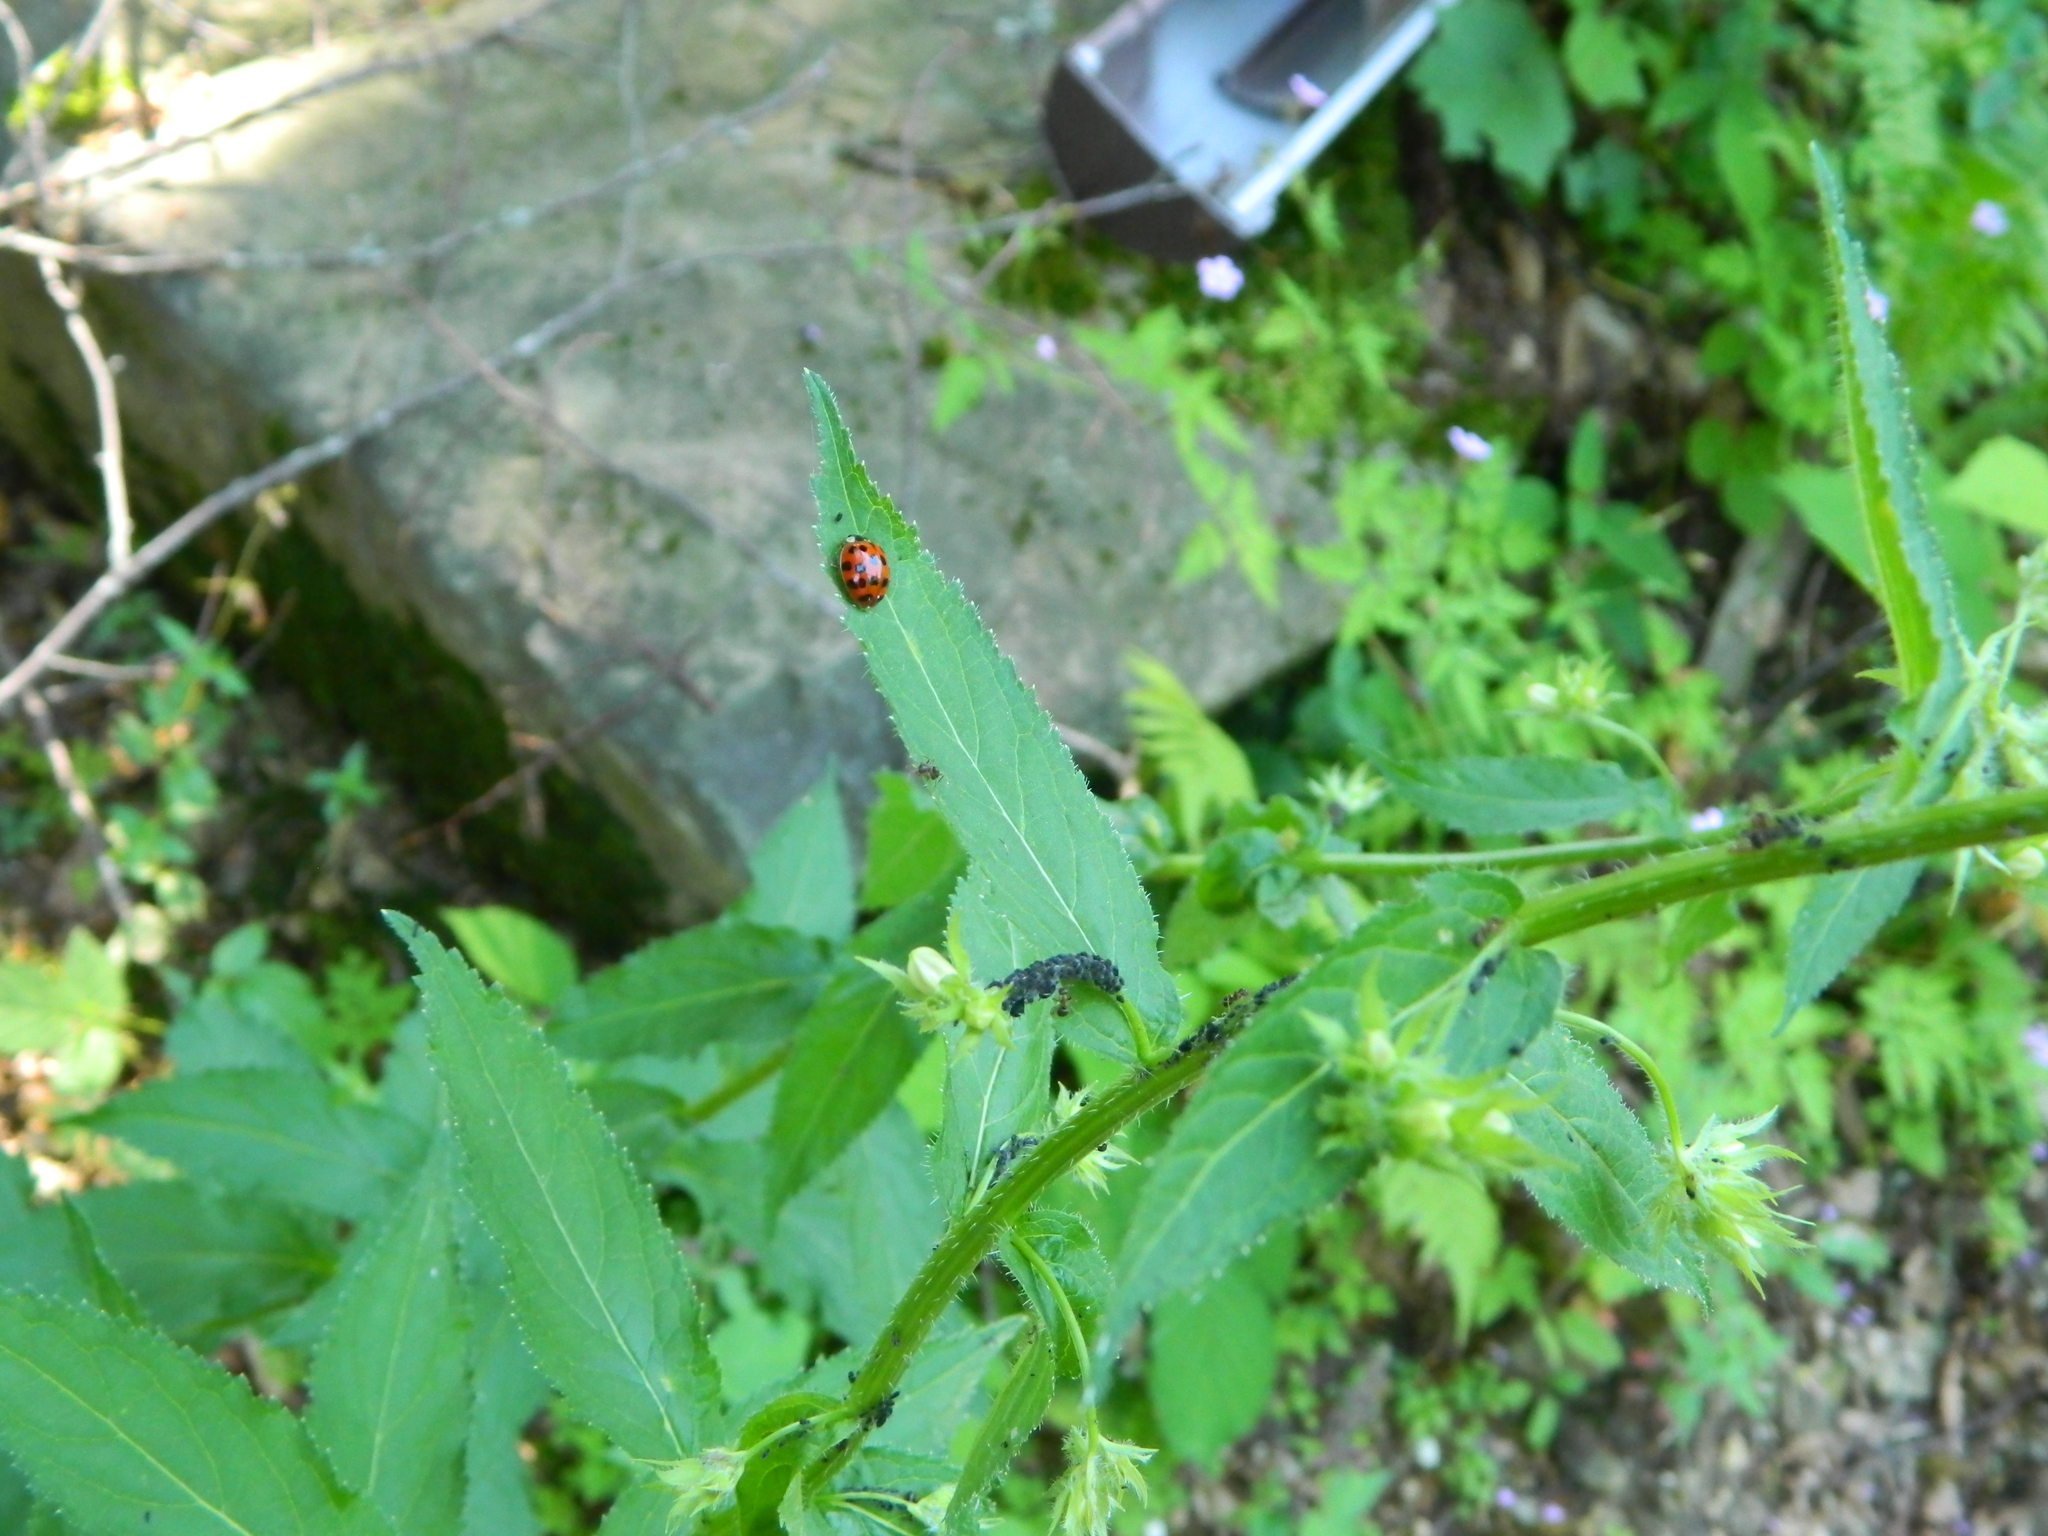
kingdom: Animalia
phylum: Arthropoda
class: Insecta
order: Coleoptera
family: Coccinellidae
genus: Harmonia
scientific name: Harmonia axyridis
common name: Harlequin ladybird
